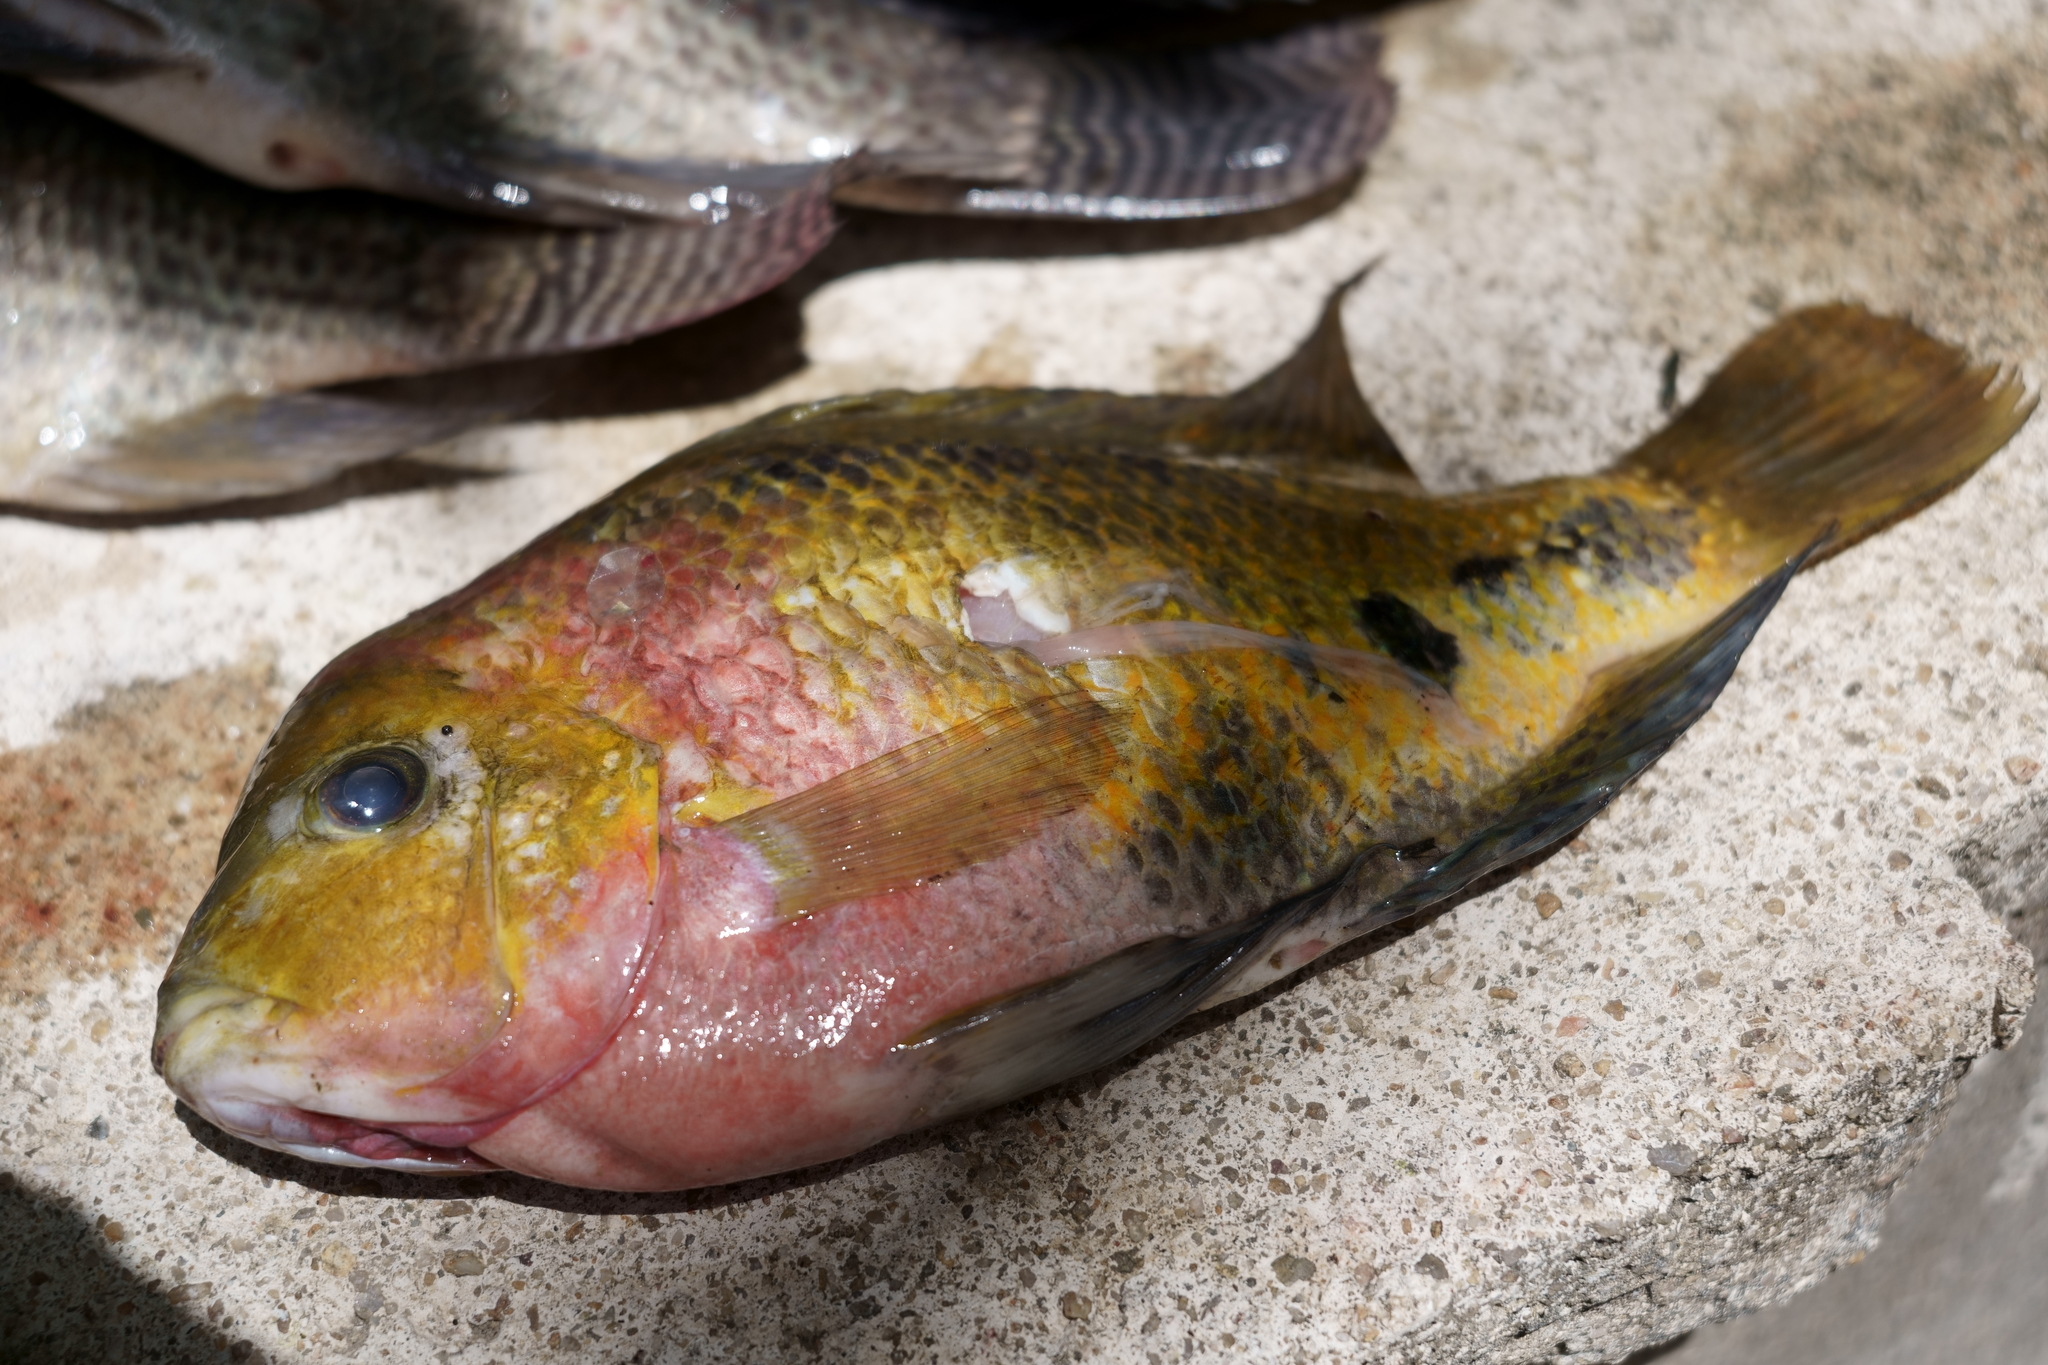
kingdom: Animalia
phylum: Chordata
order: Perciformes
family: Cichlidae
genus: Vieja
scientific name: Vieja melanura
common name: Redhead cichlid
